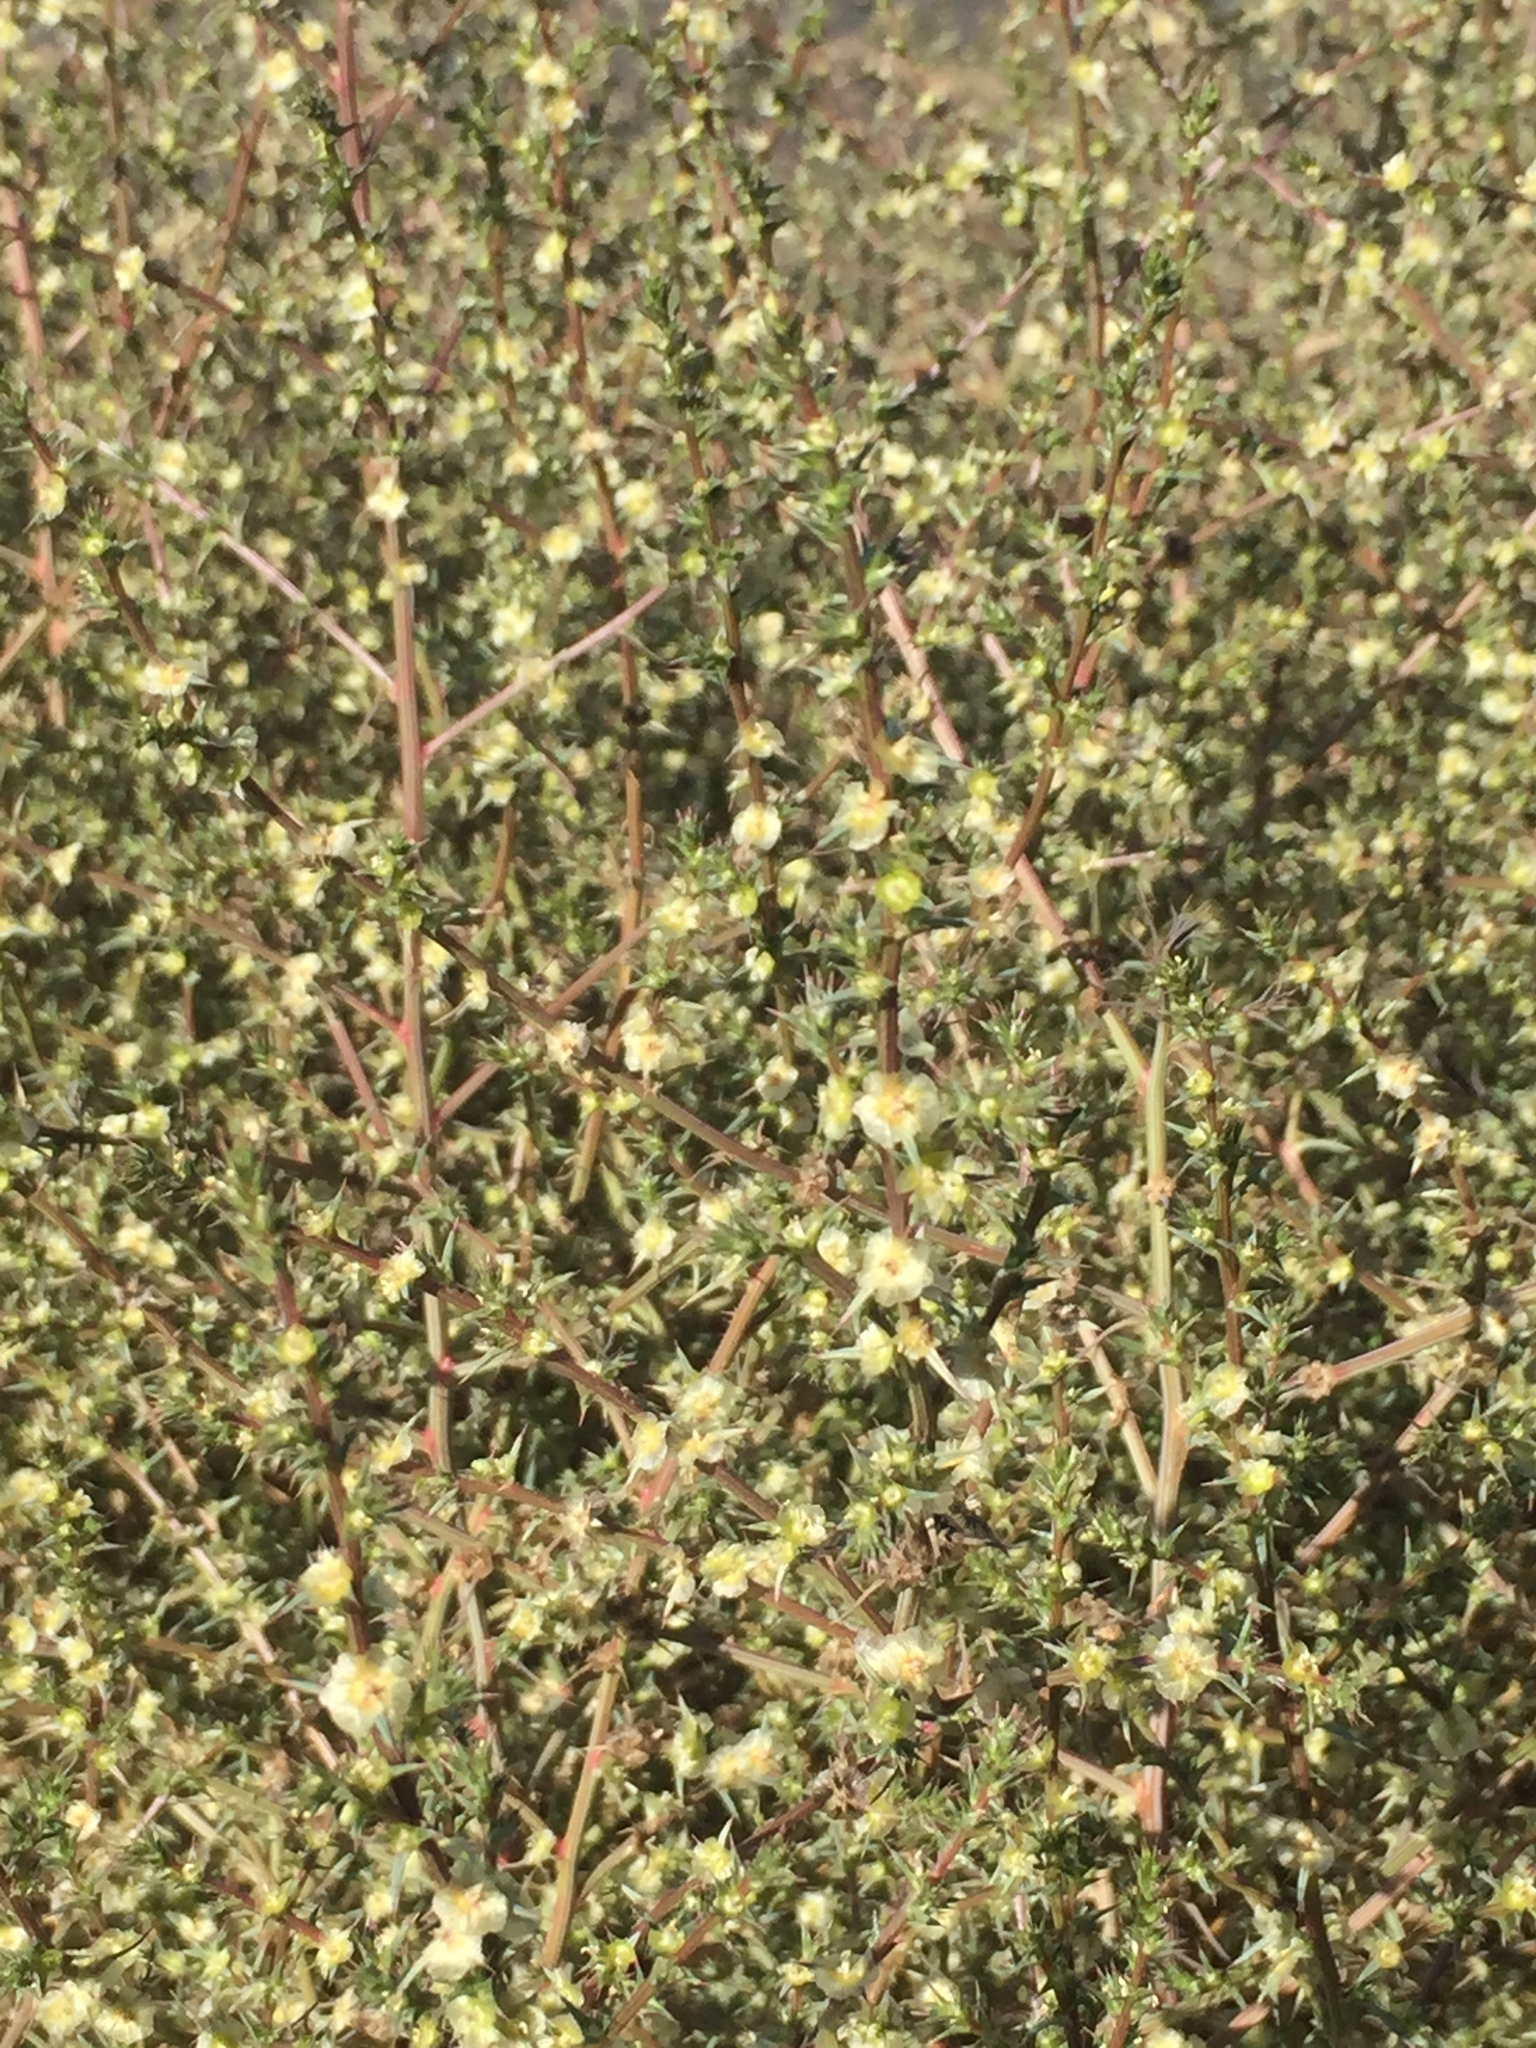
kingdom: Plantae
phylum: Tracheophyta
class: Magnoliopsida
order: Caryophyllales
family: Amaranthaceae
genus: Salsola
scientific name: Salsola australis
